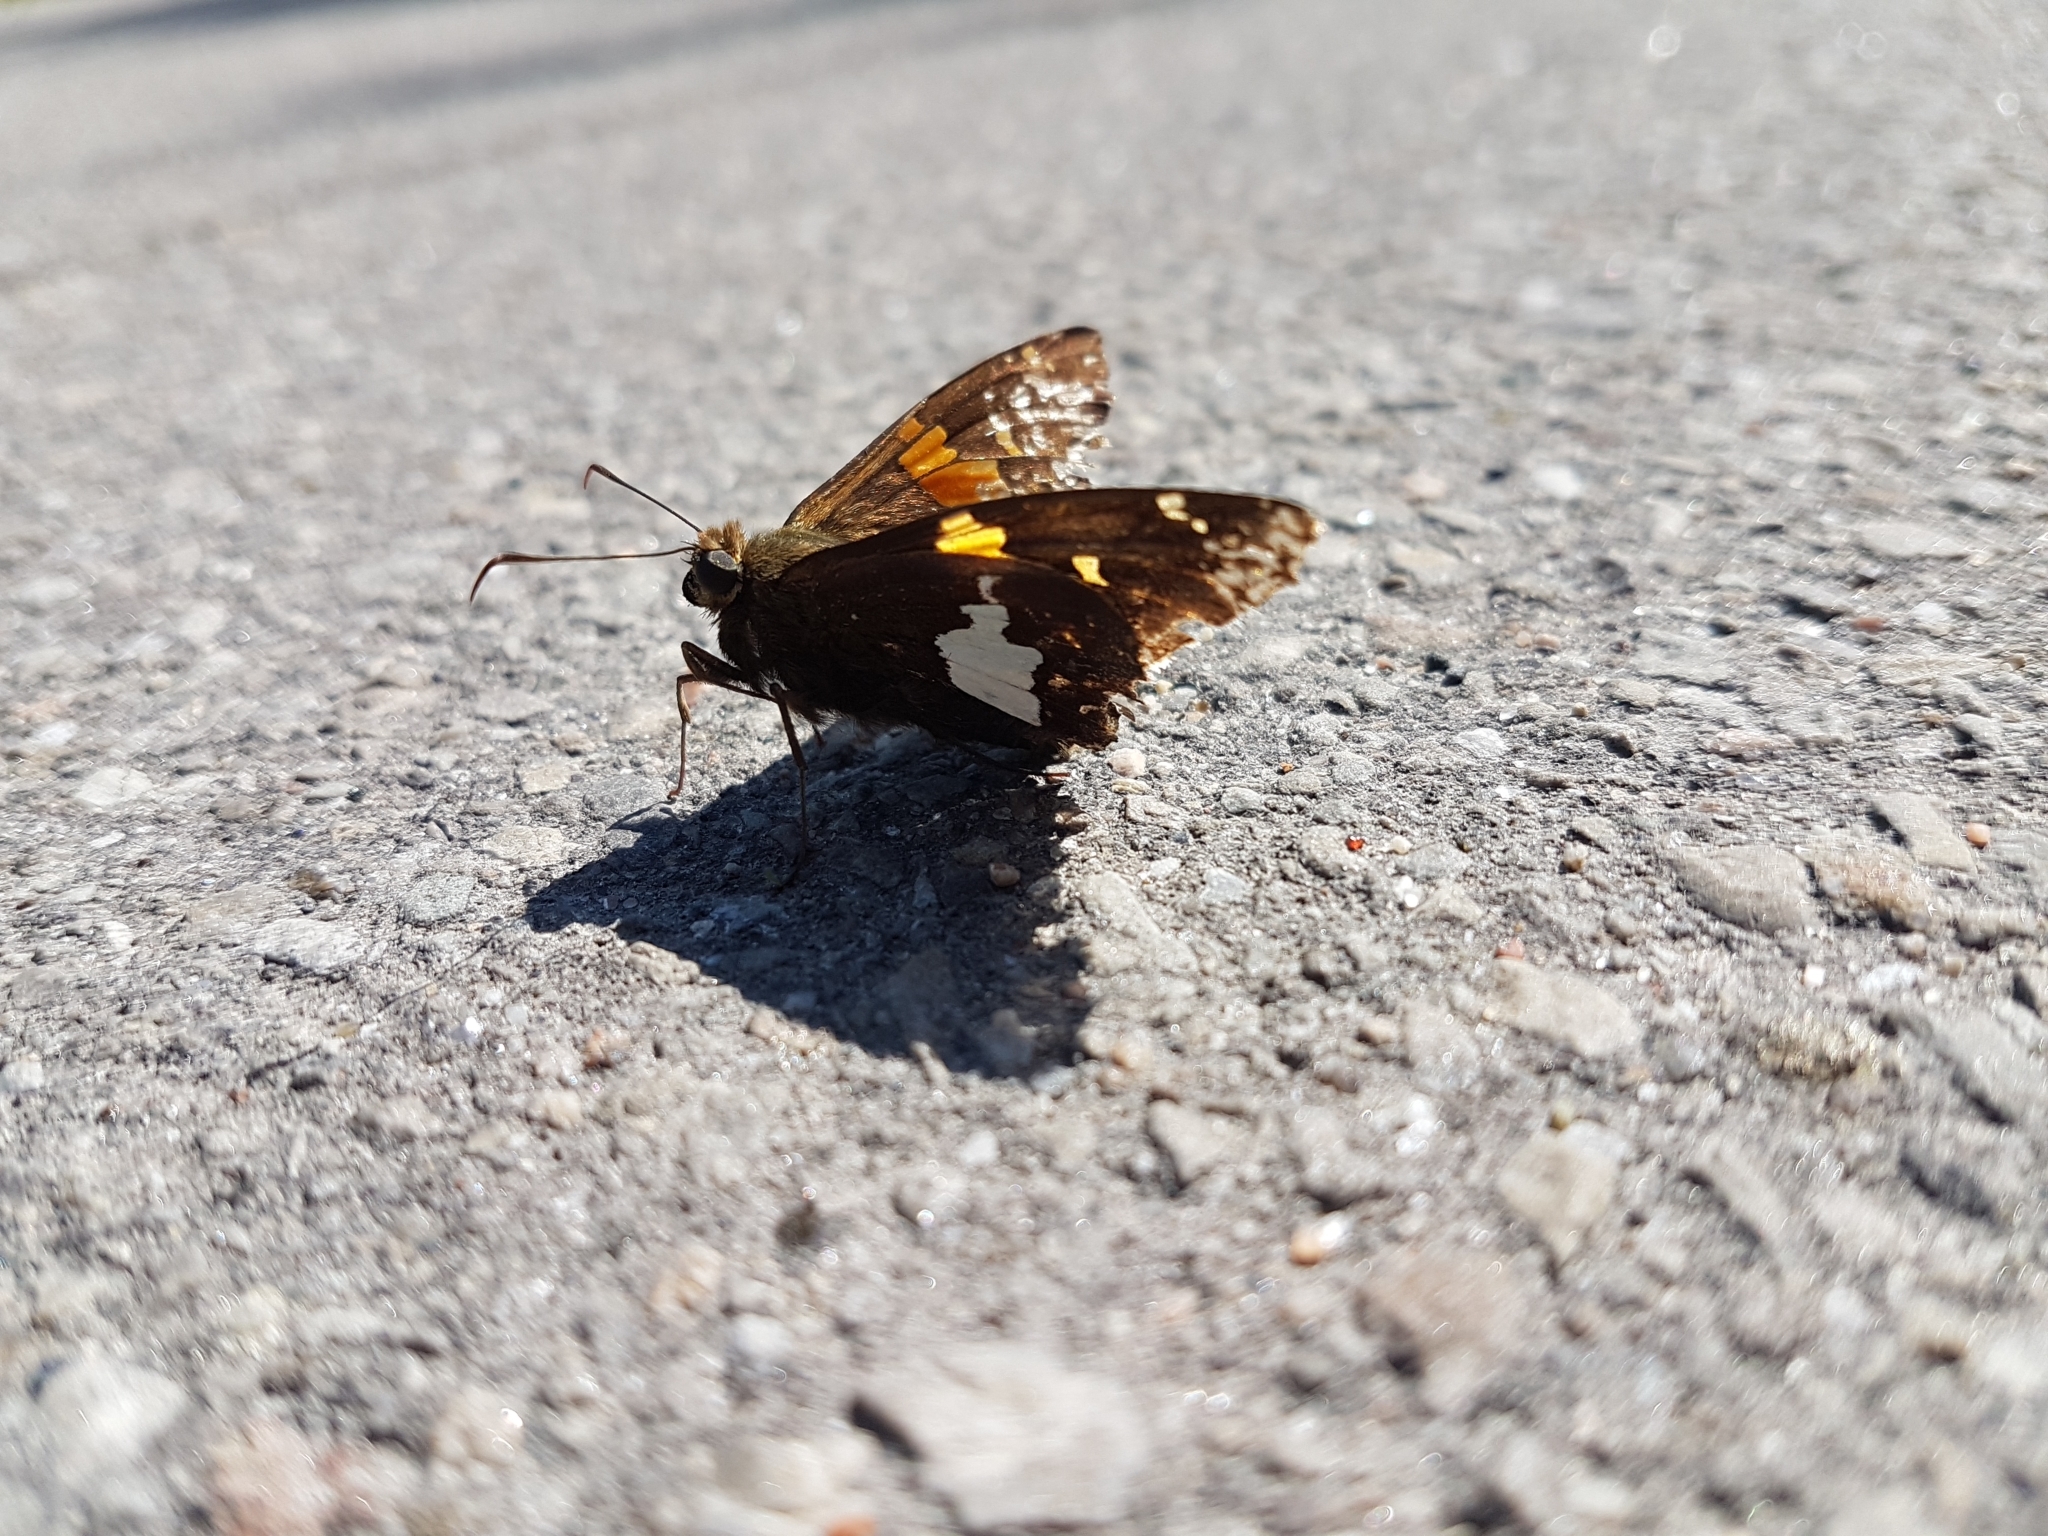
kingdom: Animalia
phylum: Arthropoda
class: Insecta
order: Lepidoptera
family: Hesperiidae
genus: Epargyreus
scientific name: Epargyreus clarus
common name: Silver-spotted skipper
